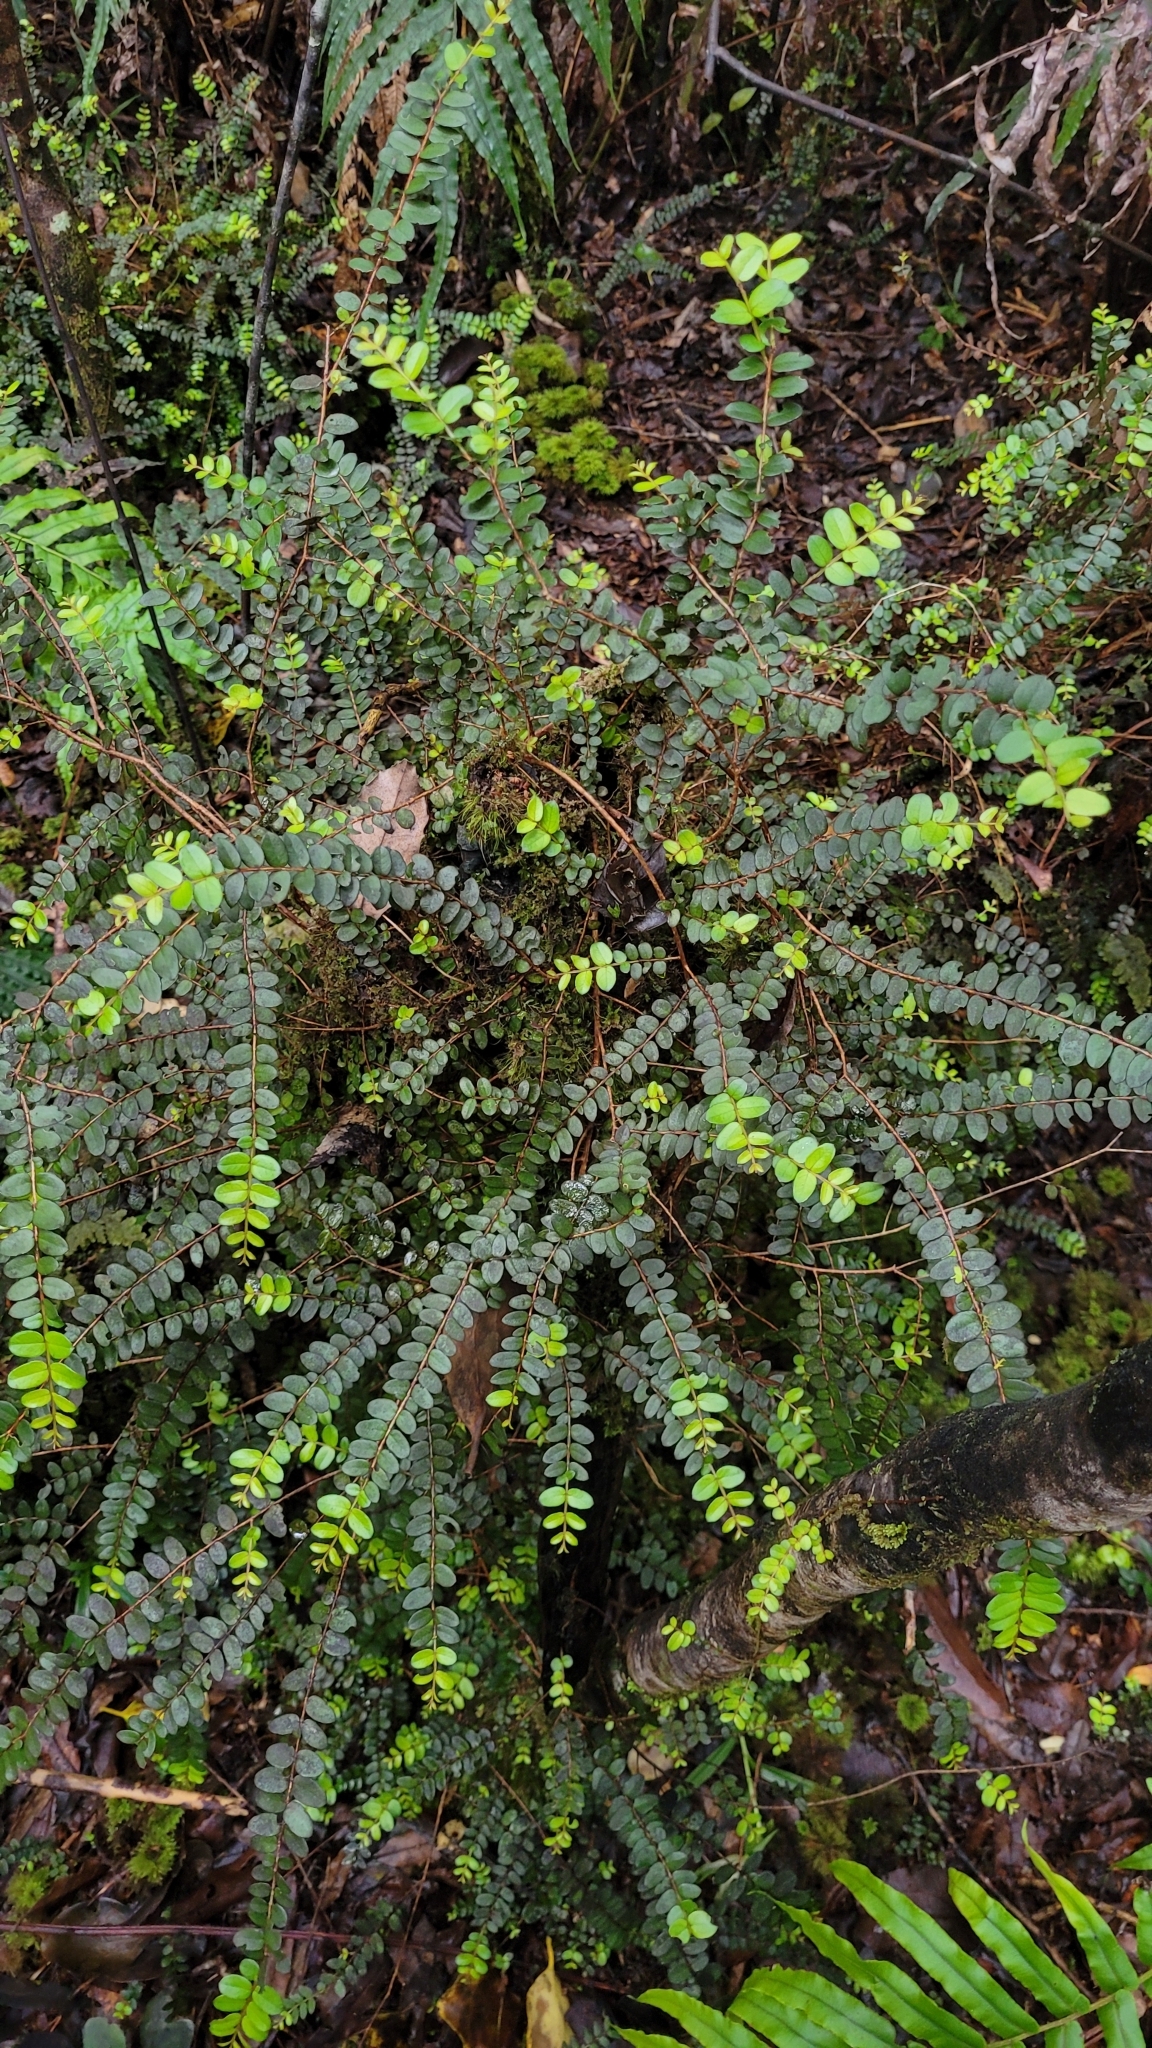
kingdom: Plantae
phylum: Tracheophyta
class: Magnoliopsida
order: Myrtales
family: Myrtaceae
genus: Metrosideros
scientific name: Metrosideros diffusa
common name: Small ratavine
